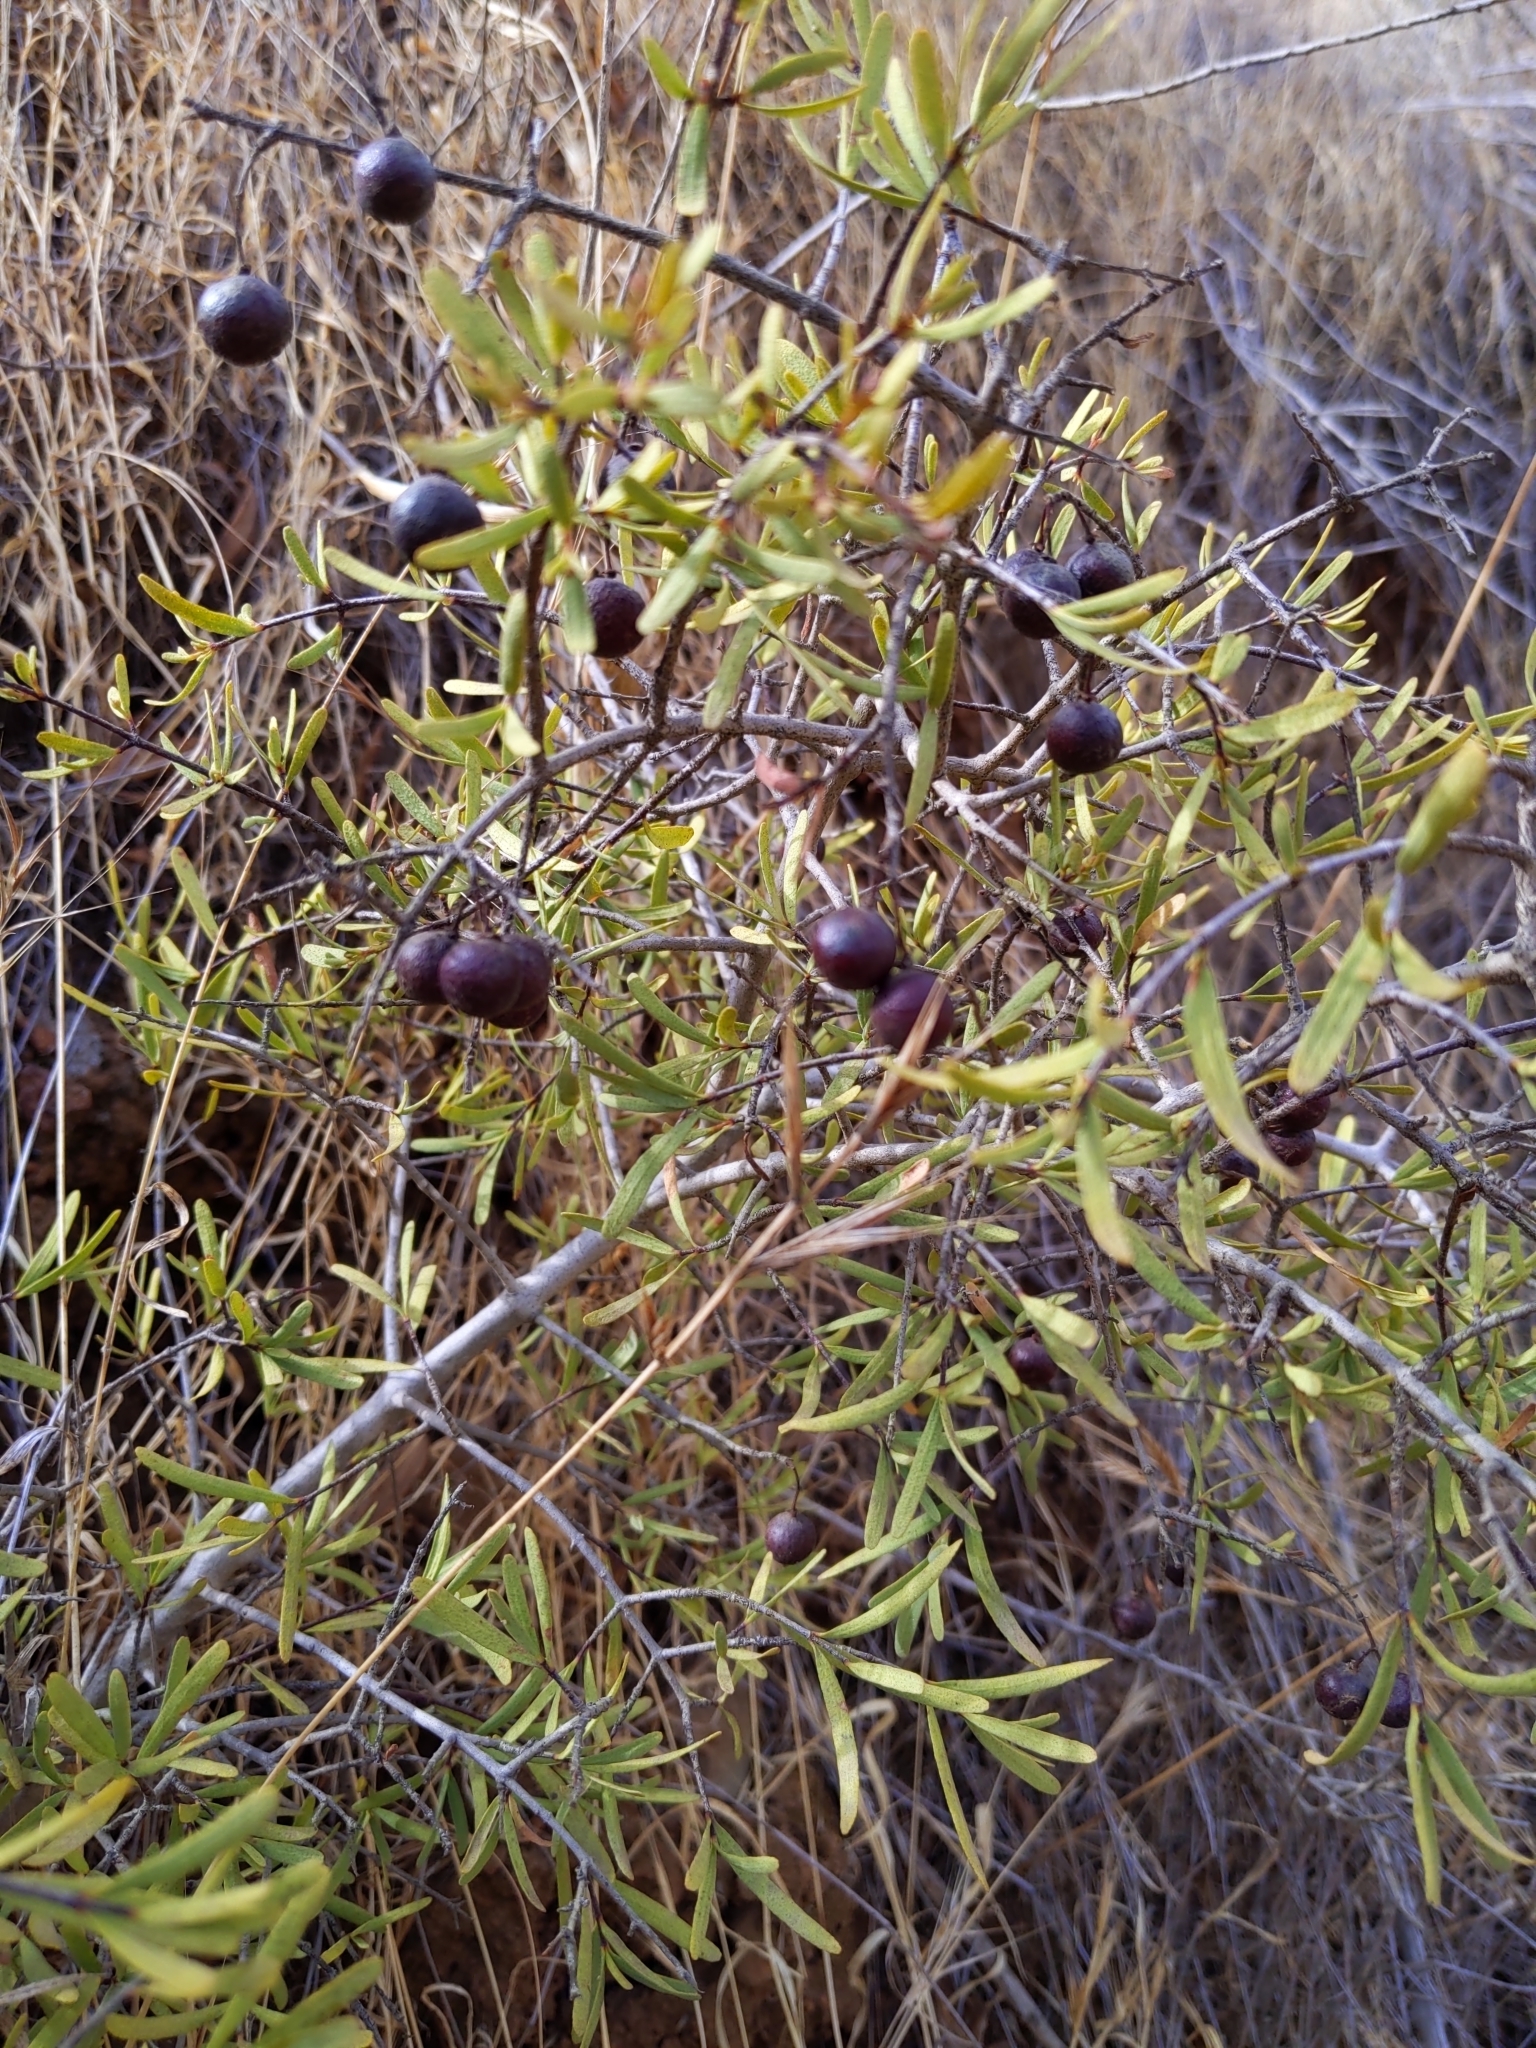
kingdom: Plantae
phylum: Tracheophyta
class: Magnoliopsida
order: Sapindales
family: Rutaceae
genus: Cneoridium
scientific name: Cneoridium dumosum
